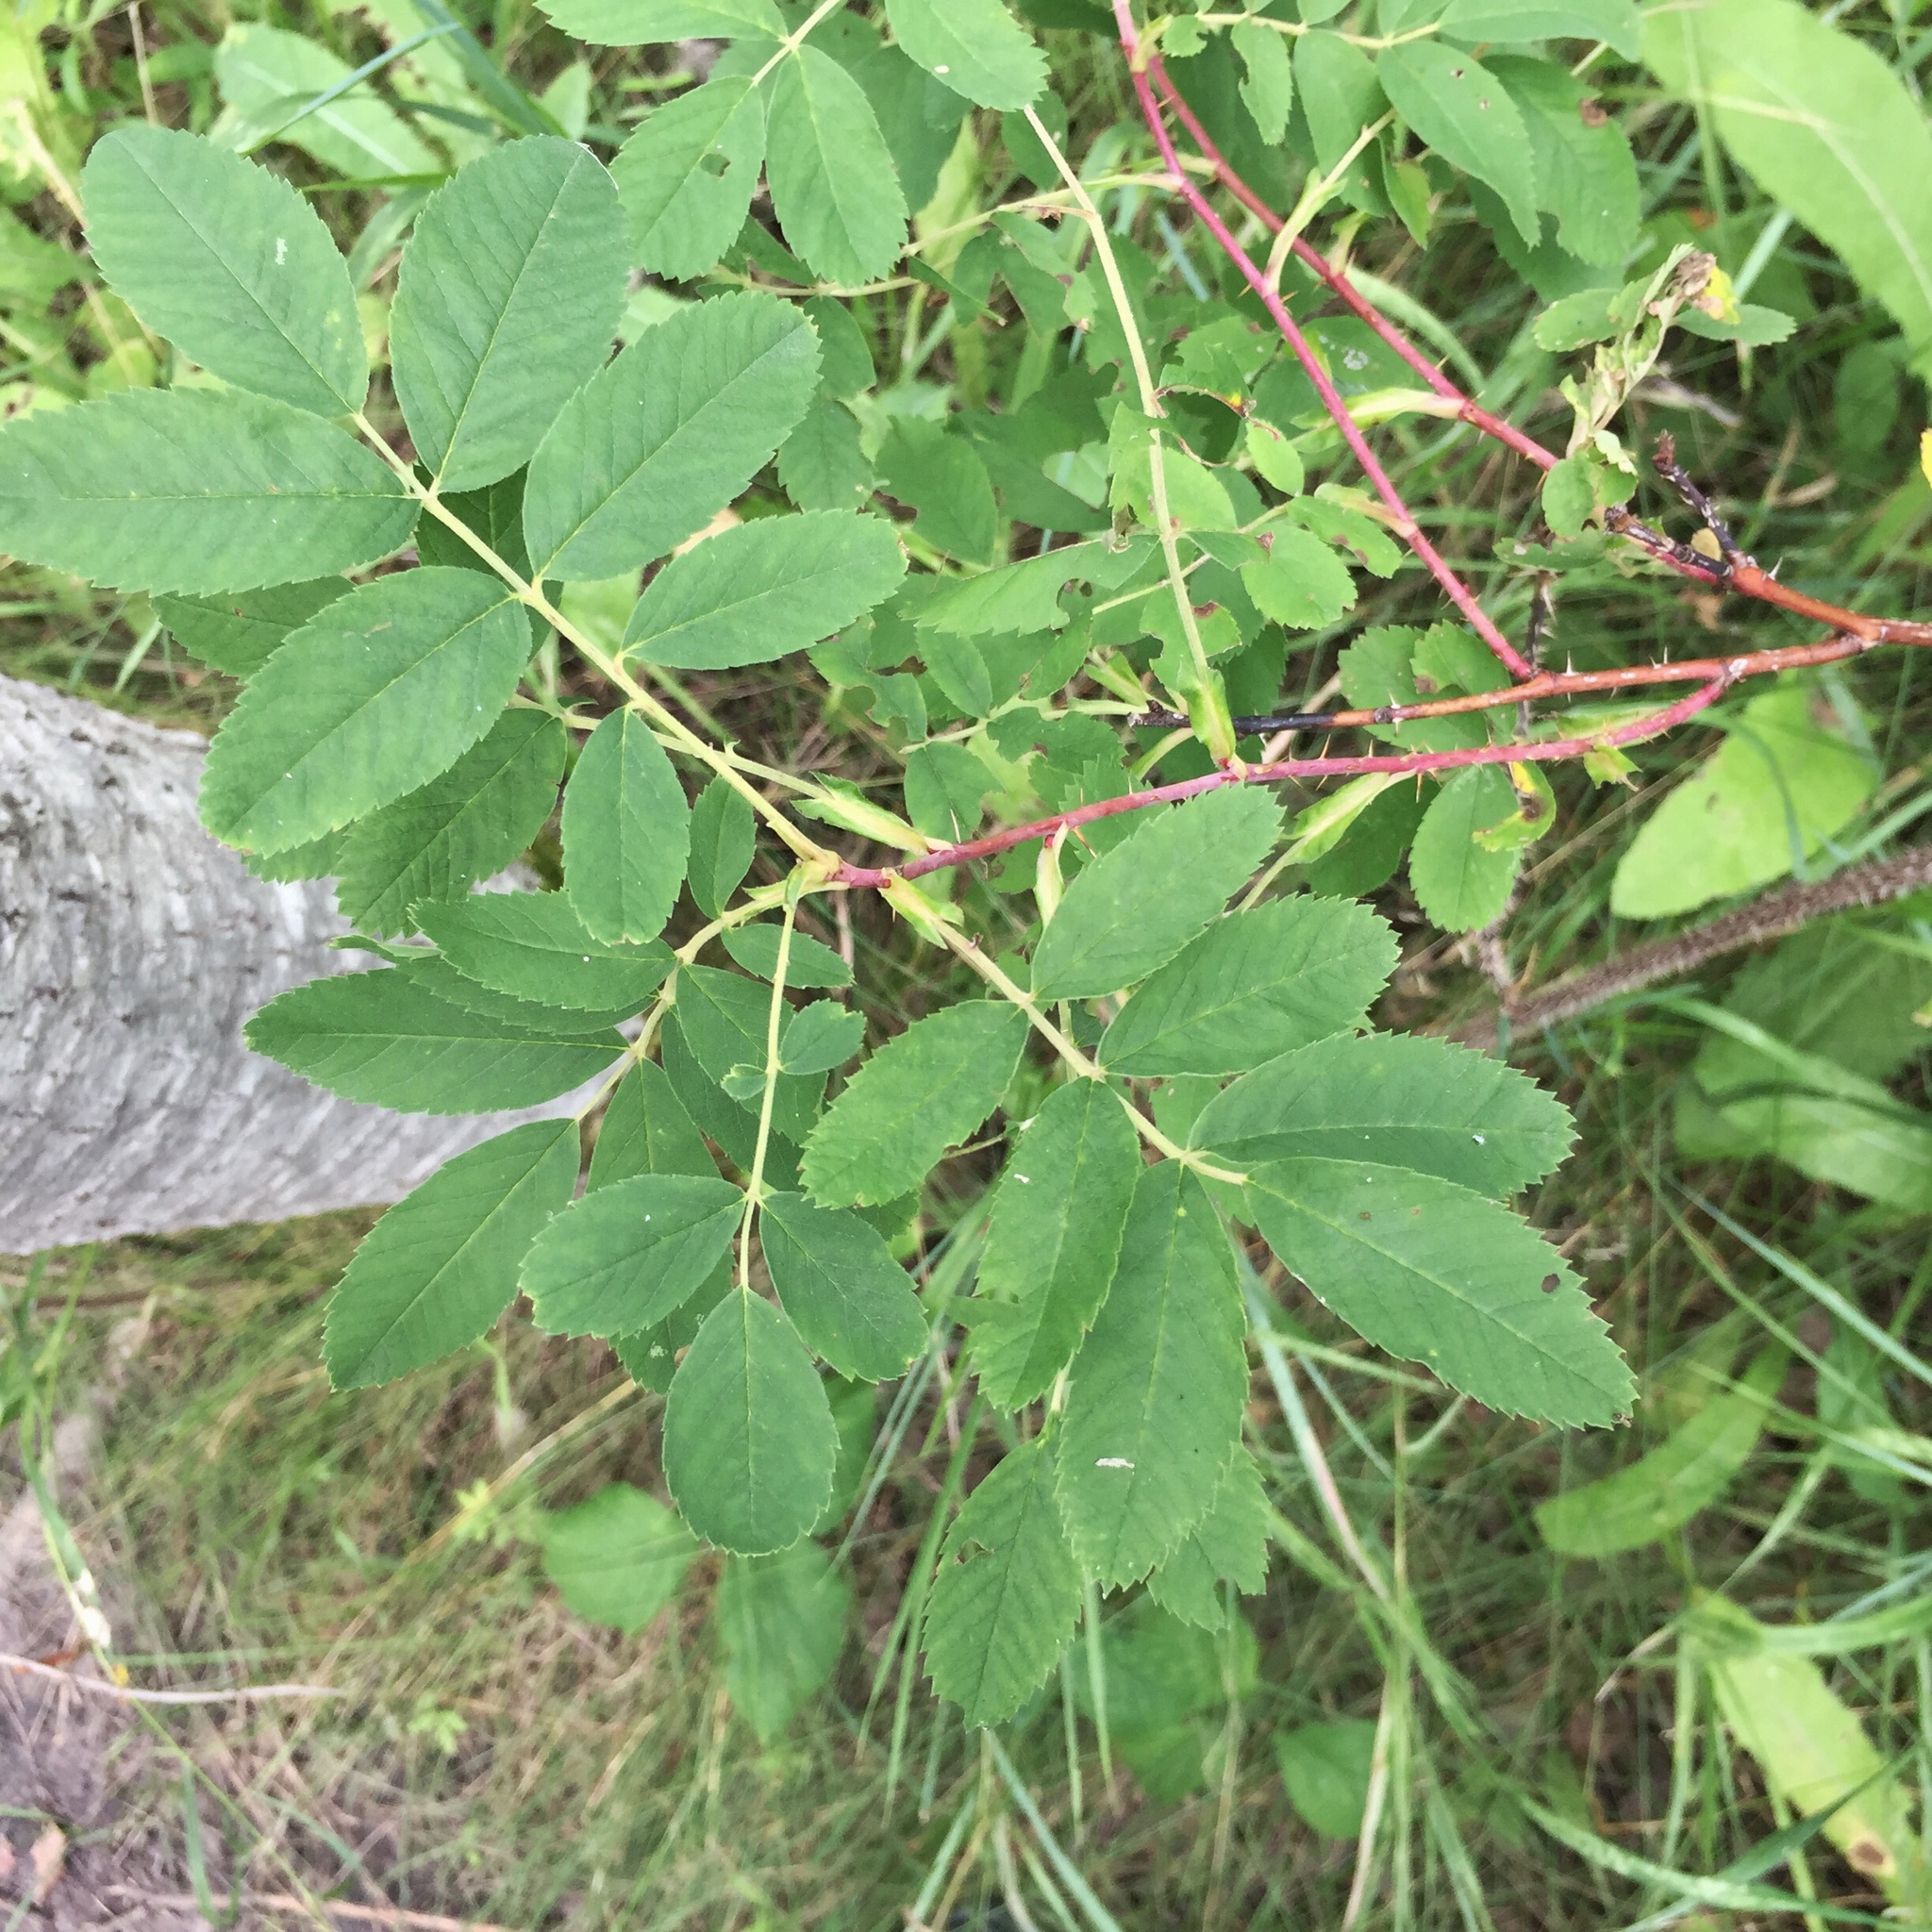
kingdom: Plantae
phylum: Tracheophyta
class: Magnoliopsida
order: Rosales
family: Rosaceae
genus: Rosa
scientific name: Rosa woodsii
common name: Woods's rose
